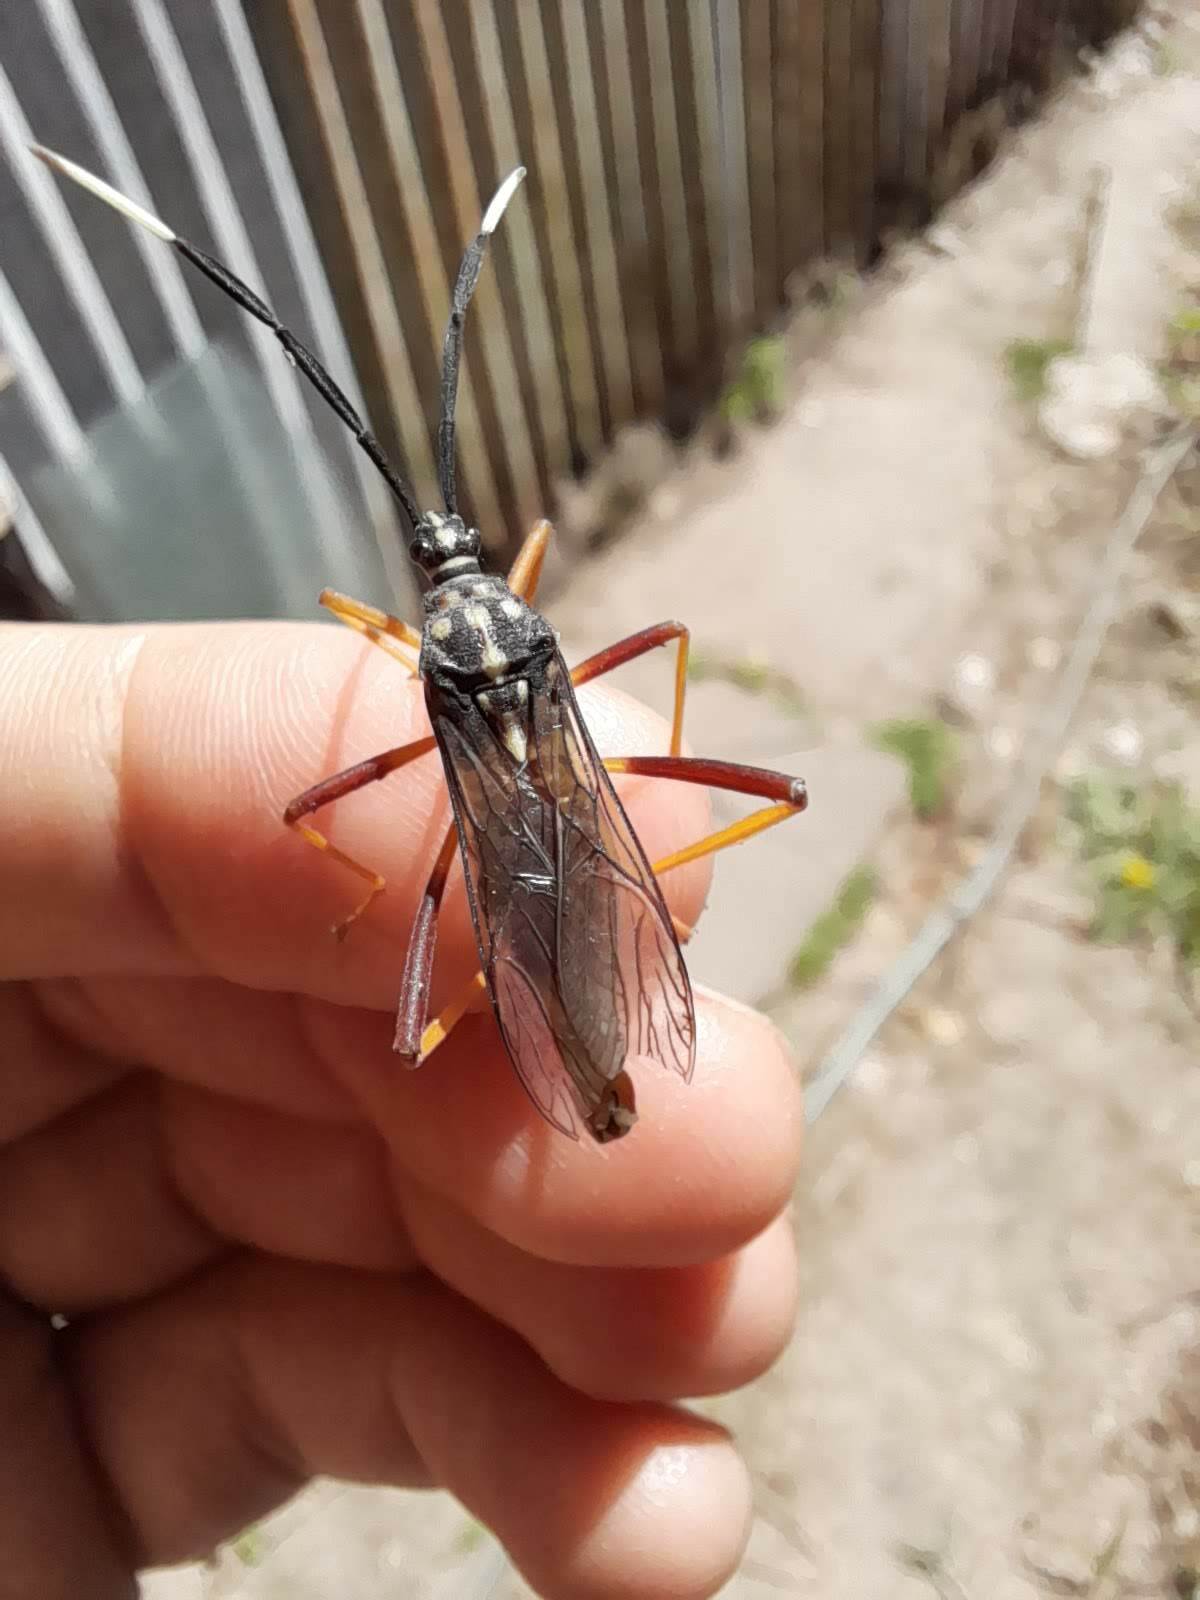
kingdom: Animalia
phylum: Arthropoda
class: Insecta
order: Hemiptera
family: Coreidae
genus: Holhymenia
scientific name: Holhymenia histrio
